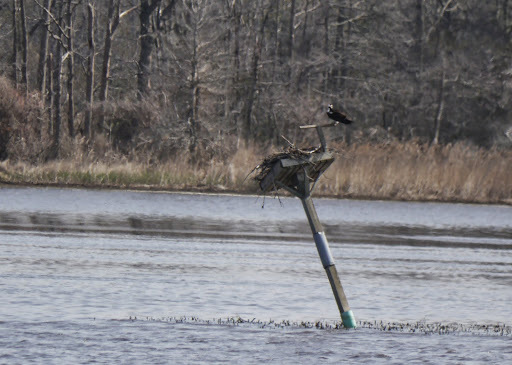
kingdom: Animalia
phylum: Chordata
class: Aves
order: Accipitriformes
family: Pandionidae
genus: Pandion
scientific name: Pandion haliaetus
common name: Osprey
